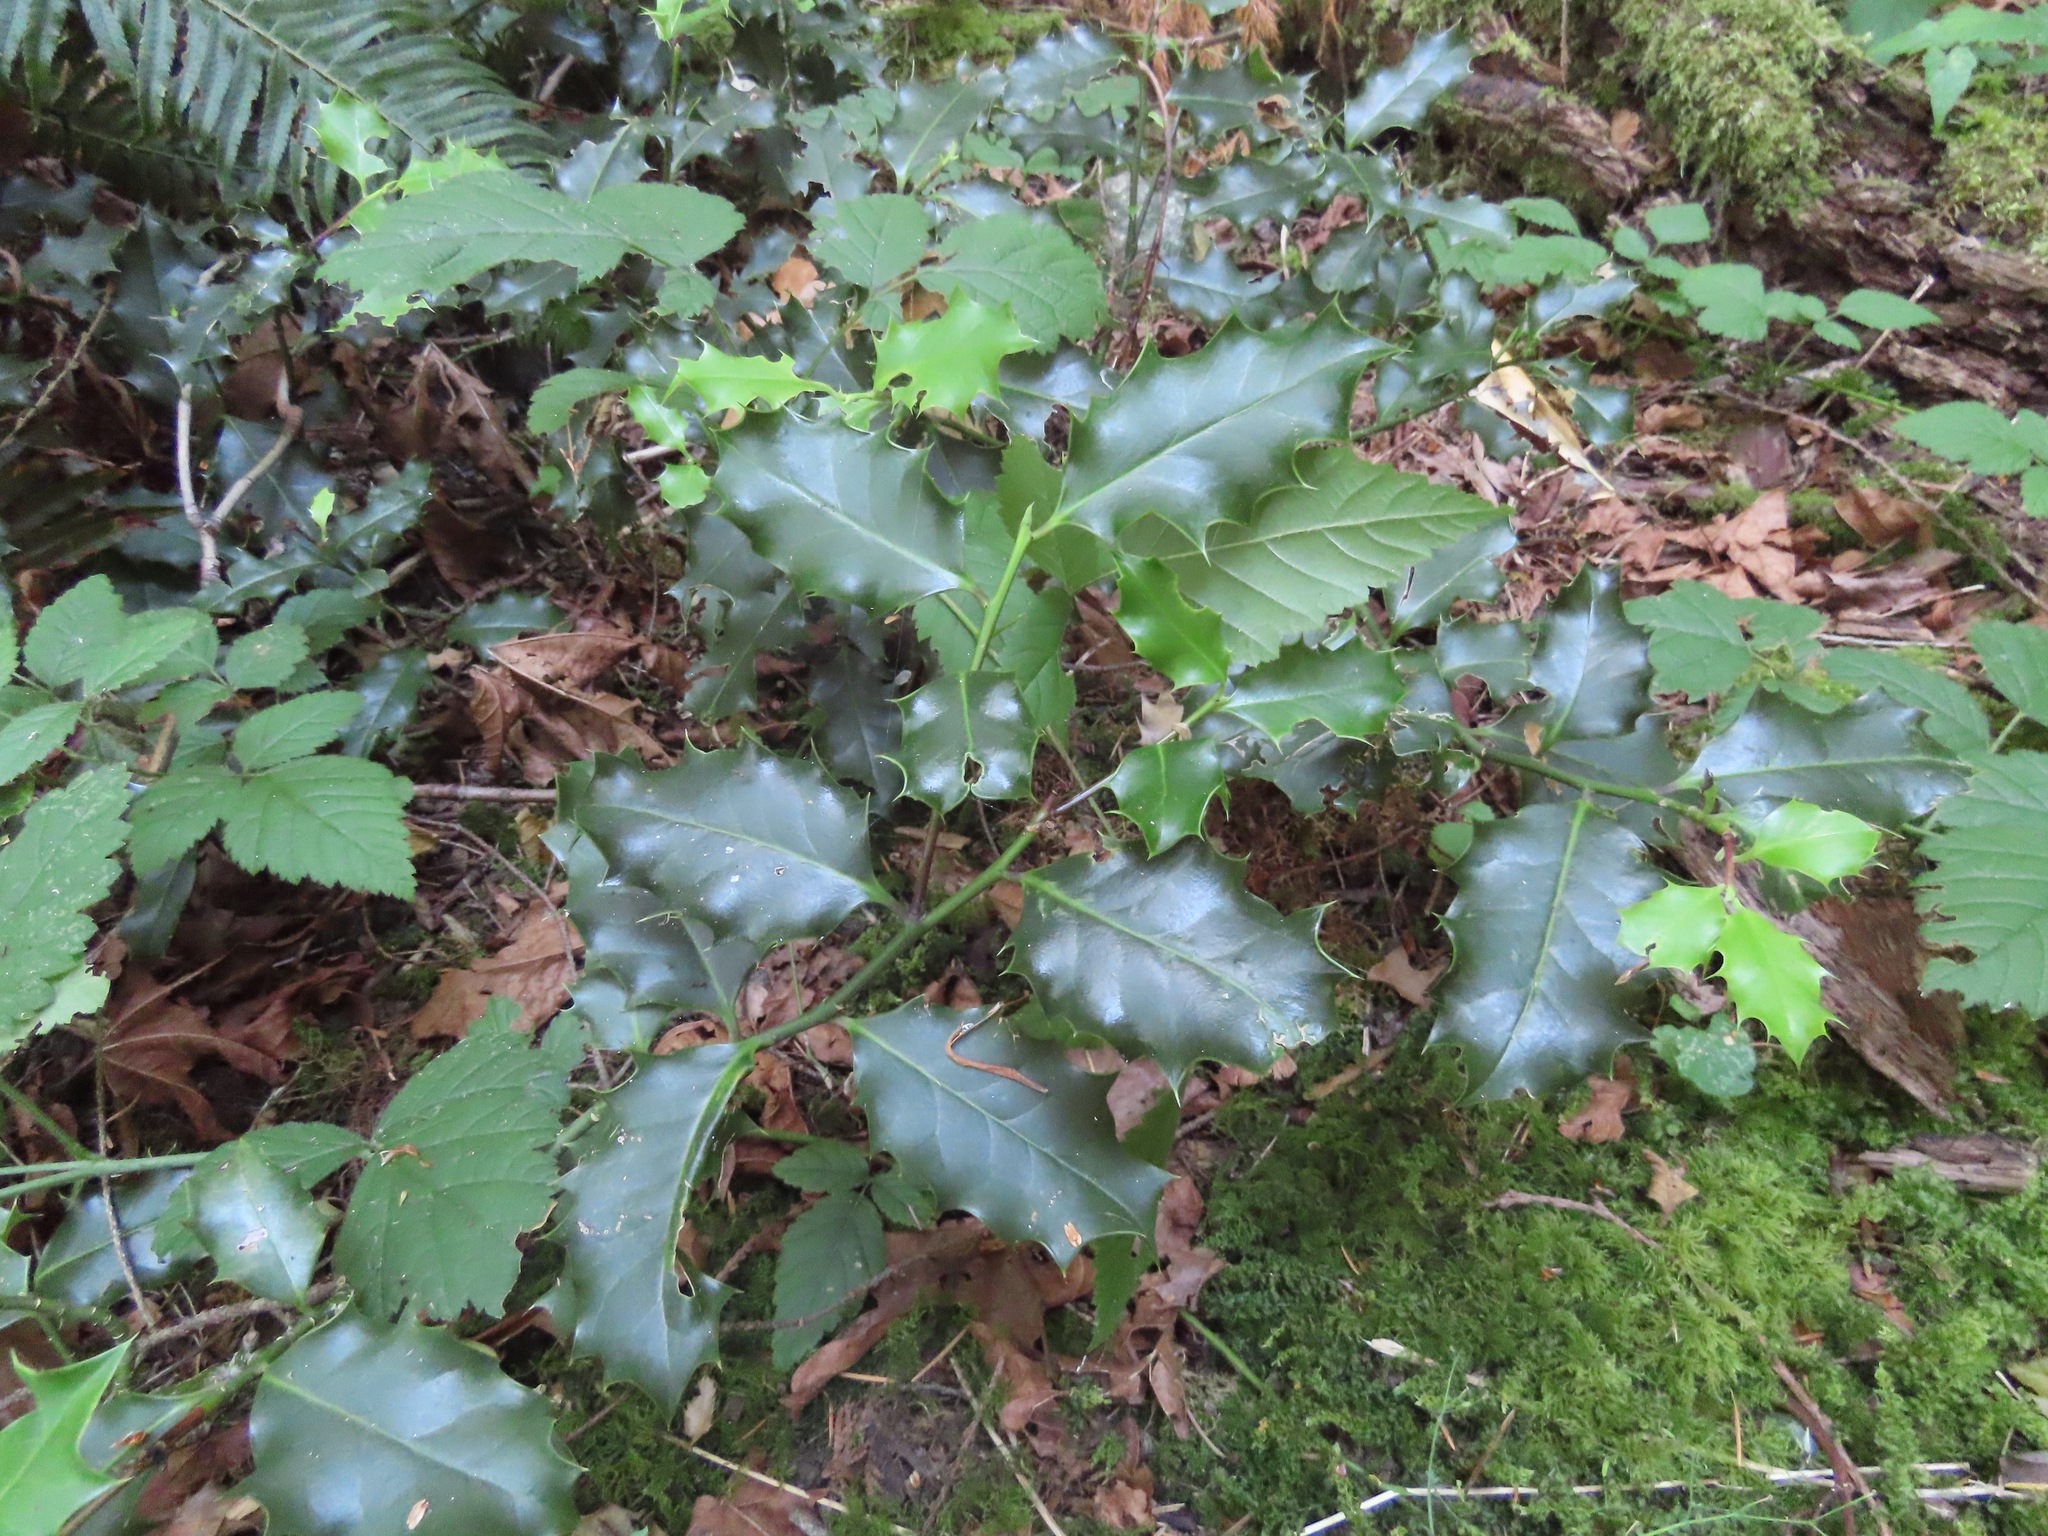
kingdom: Plantae
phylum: Tracheophyta
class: Magnoliopsida
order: Aquifoliales
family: Aquifoliaceae
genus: Ilex
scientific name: Ilex aquifolium
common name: English holly
